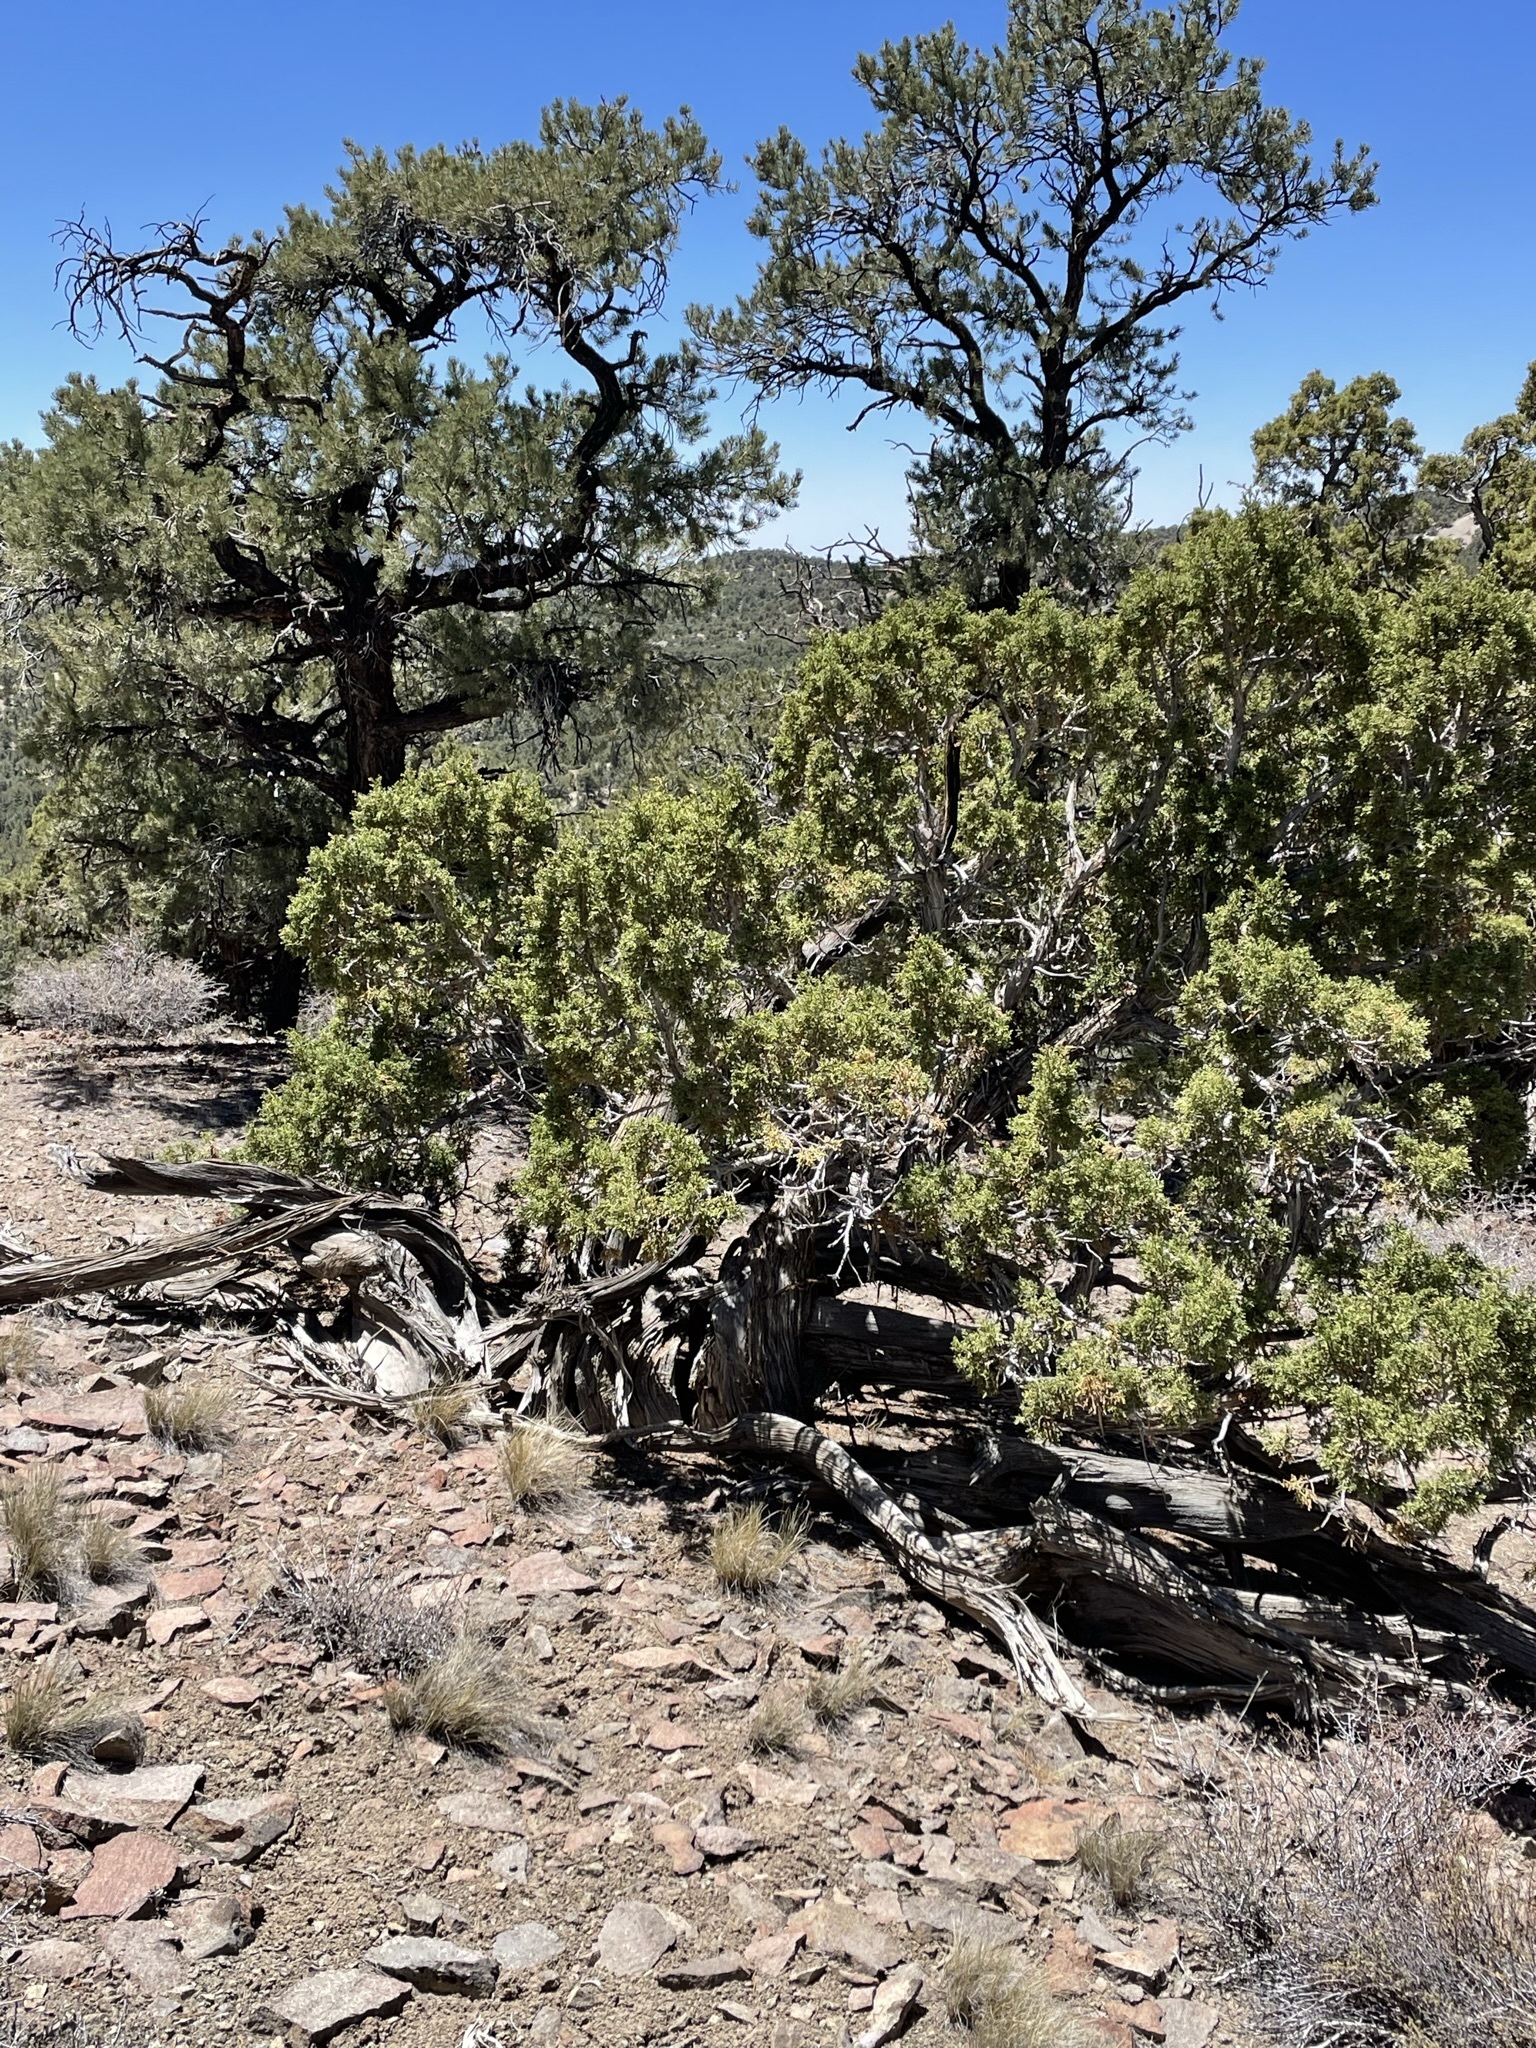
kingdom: Plantae
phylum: Tracheophyta
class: Pinopsida
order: Pinales
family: Cupressaceae
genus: Juniperus
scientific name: Juniperus osteosperma
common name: Utah juniper
